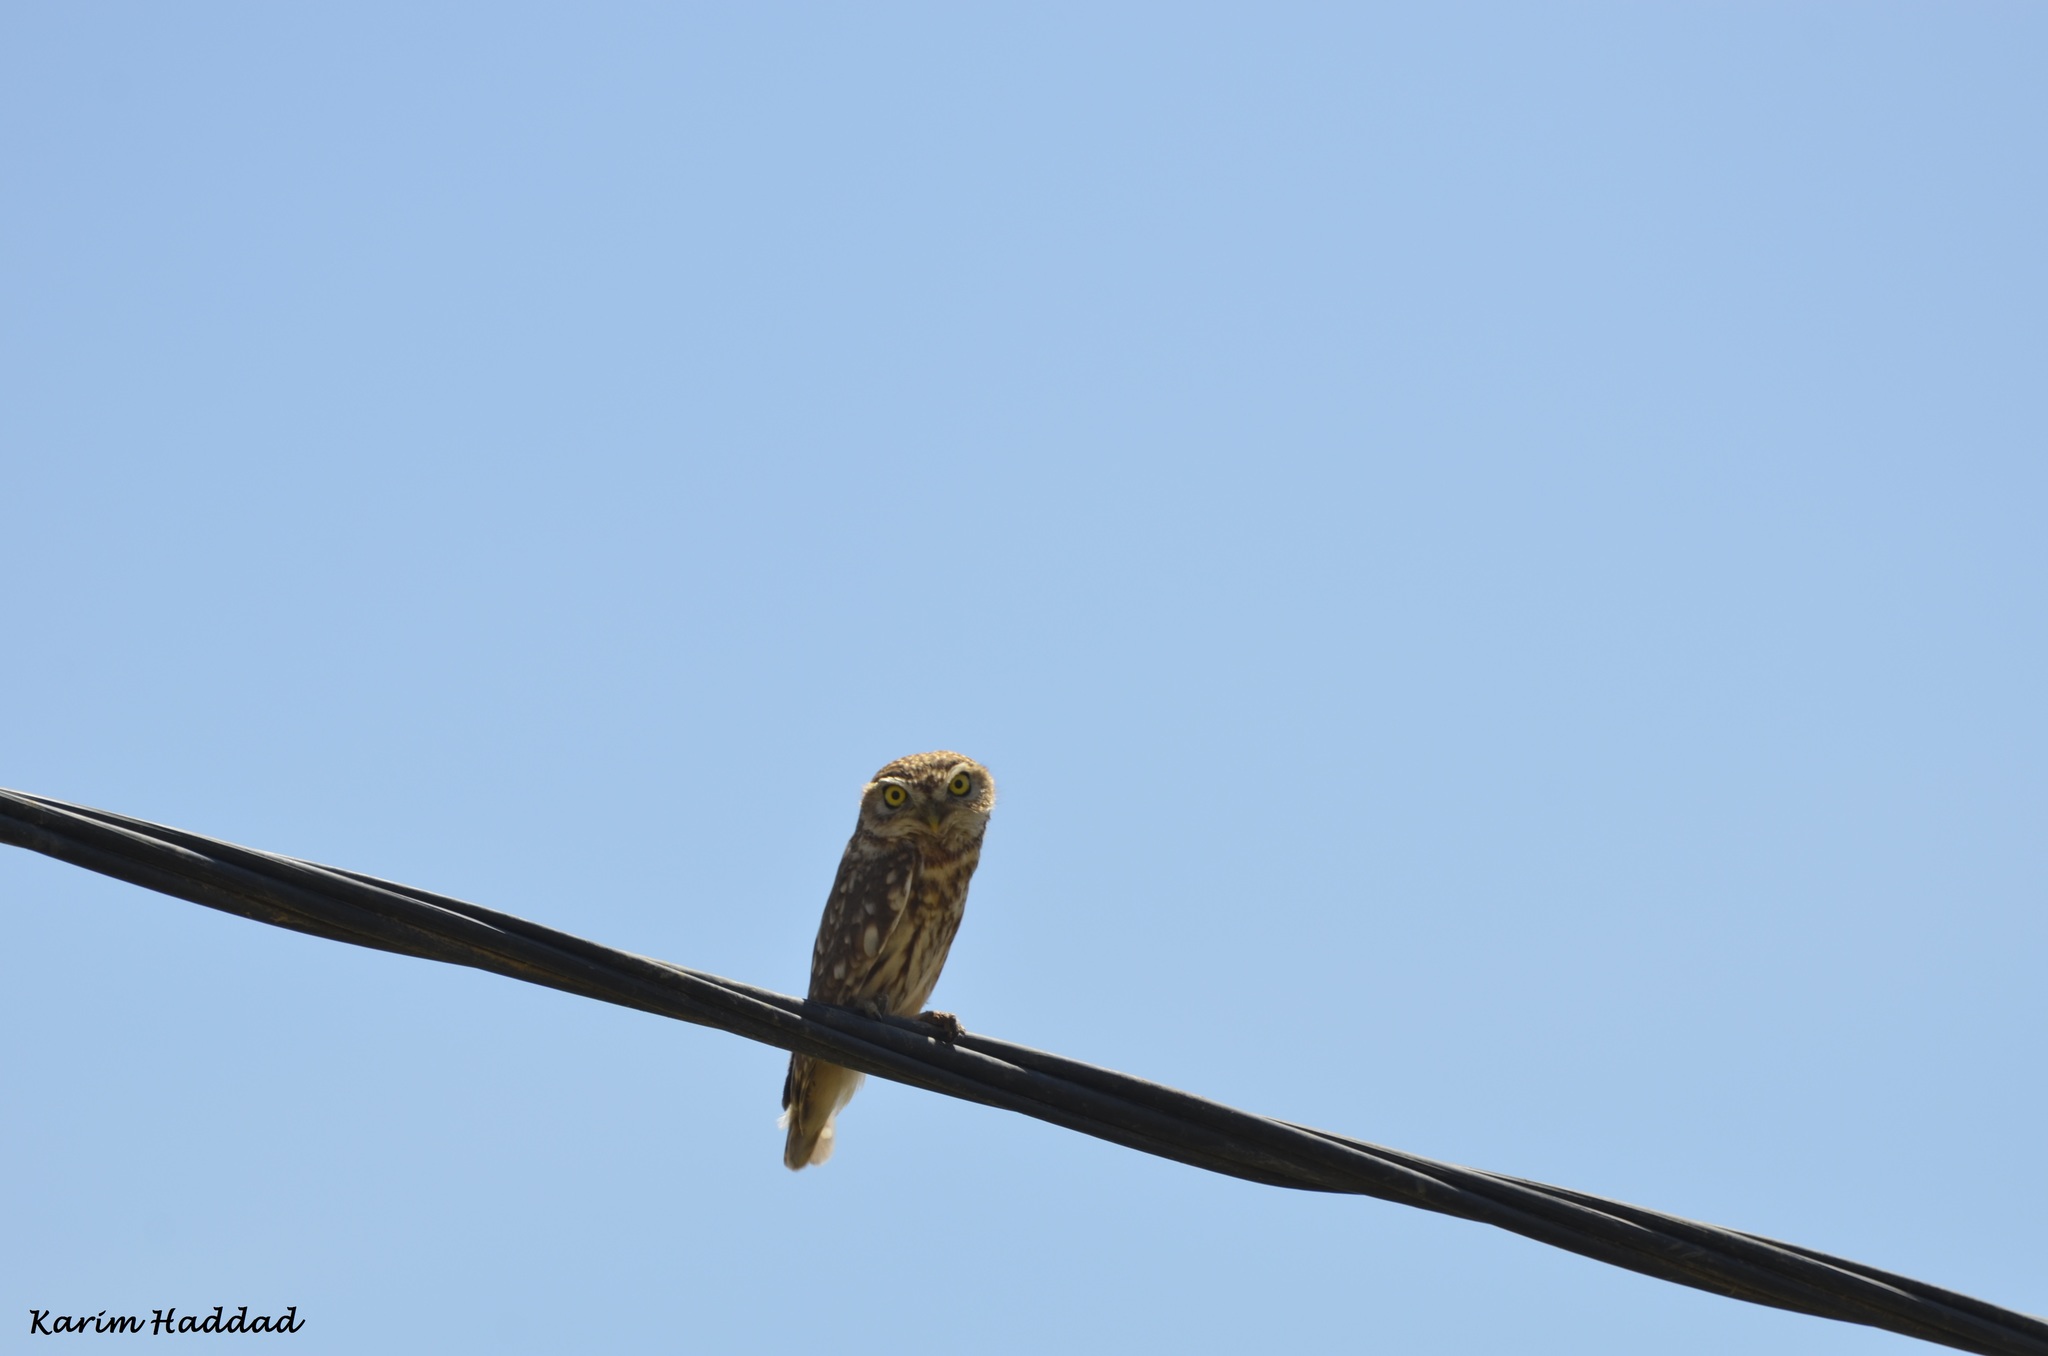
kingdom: Animalia
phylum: Chordata
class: Aves
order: Strigiformes
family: Strigidae
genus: Athene
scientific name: Athene noctua
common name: Little owl
